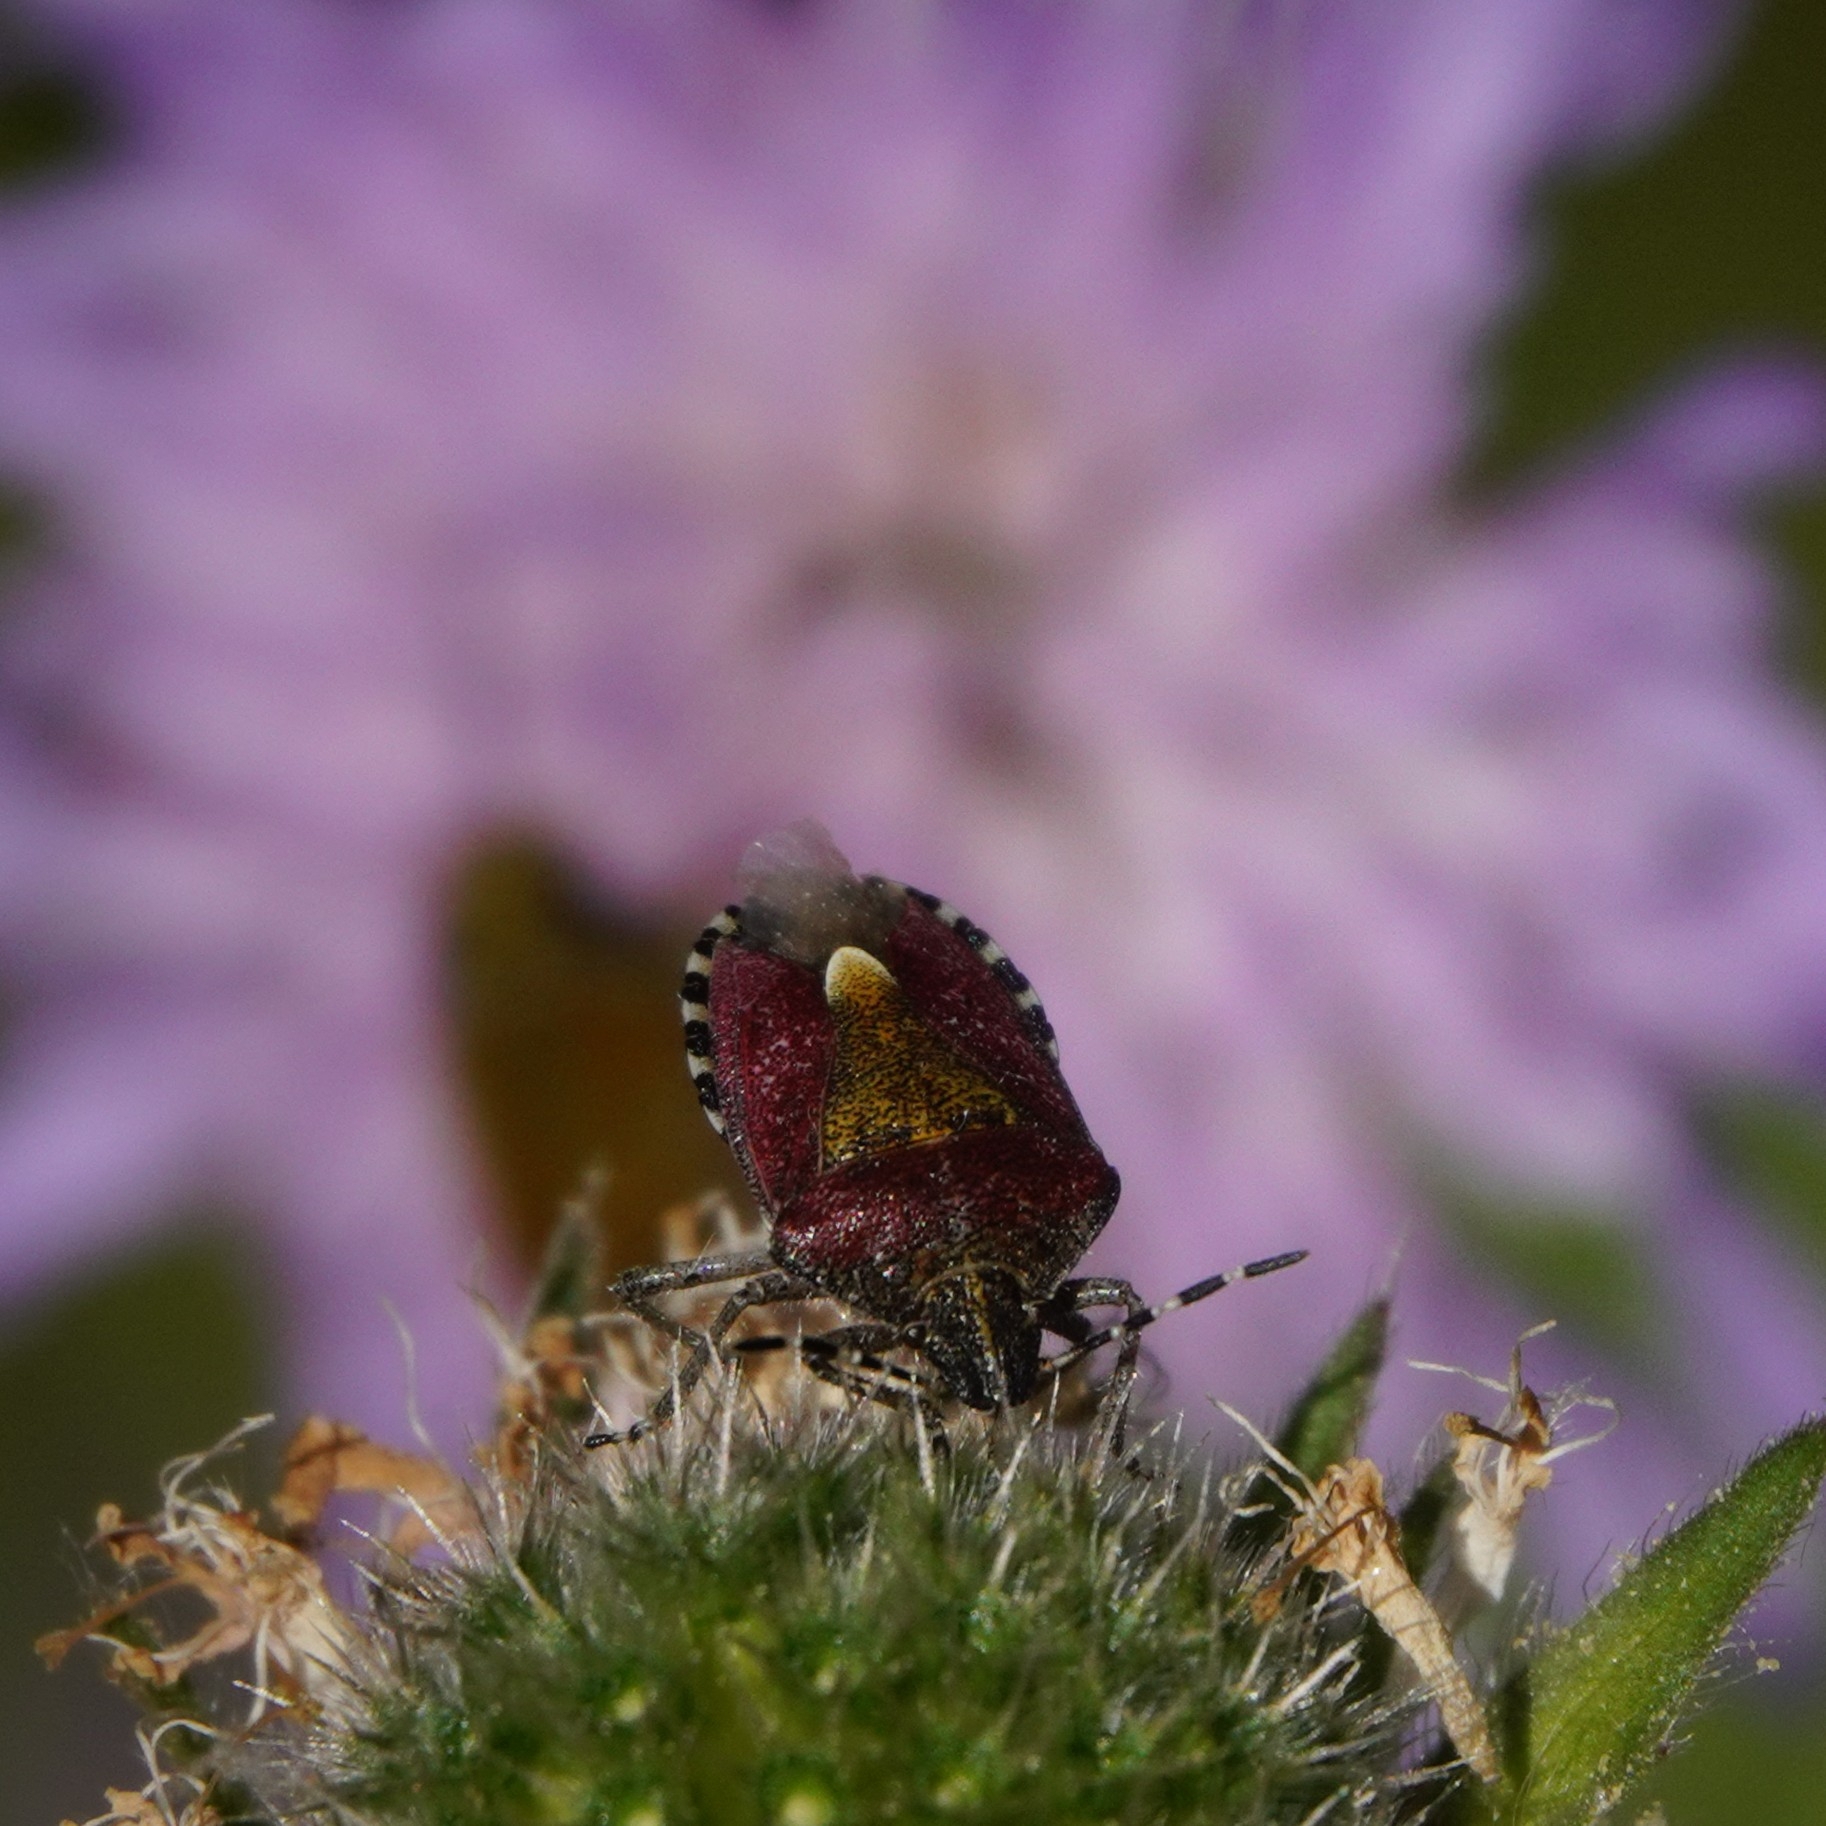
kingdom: Animalia
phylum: Arthropoda
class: Insecta
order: Hemiptera
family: Pentatomidae
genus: Dolycoris
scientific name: Dolycoris baccarum
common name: Sloe bug
